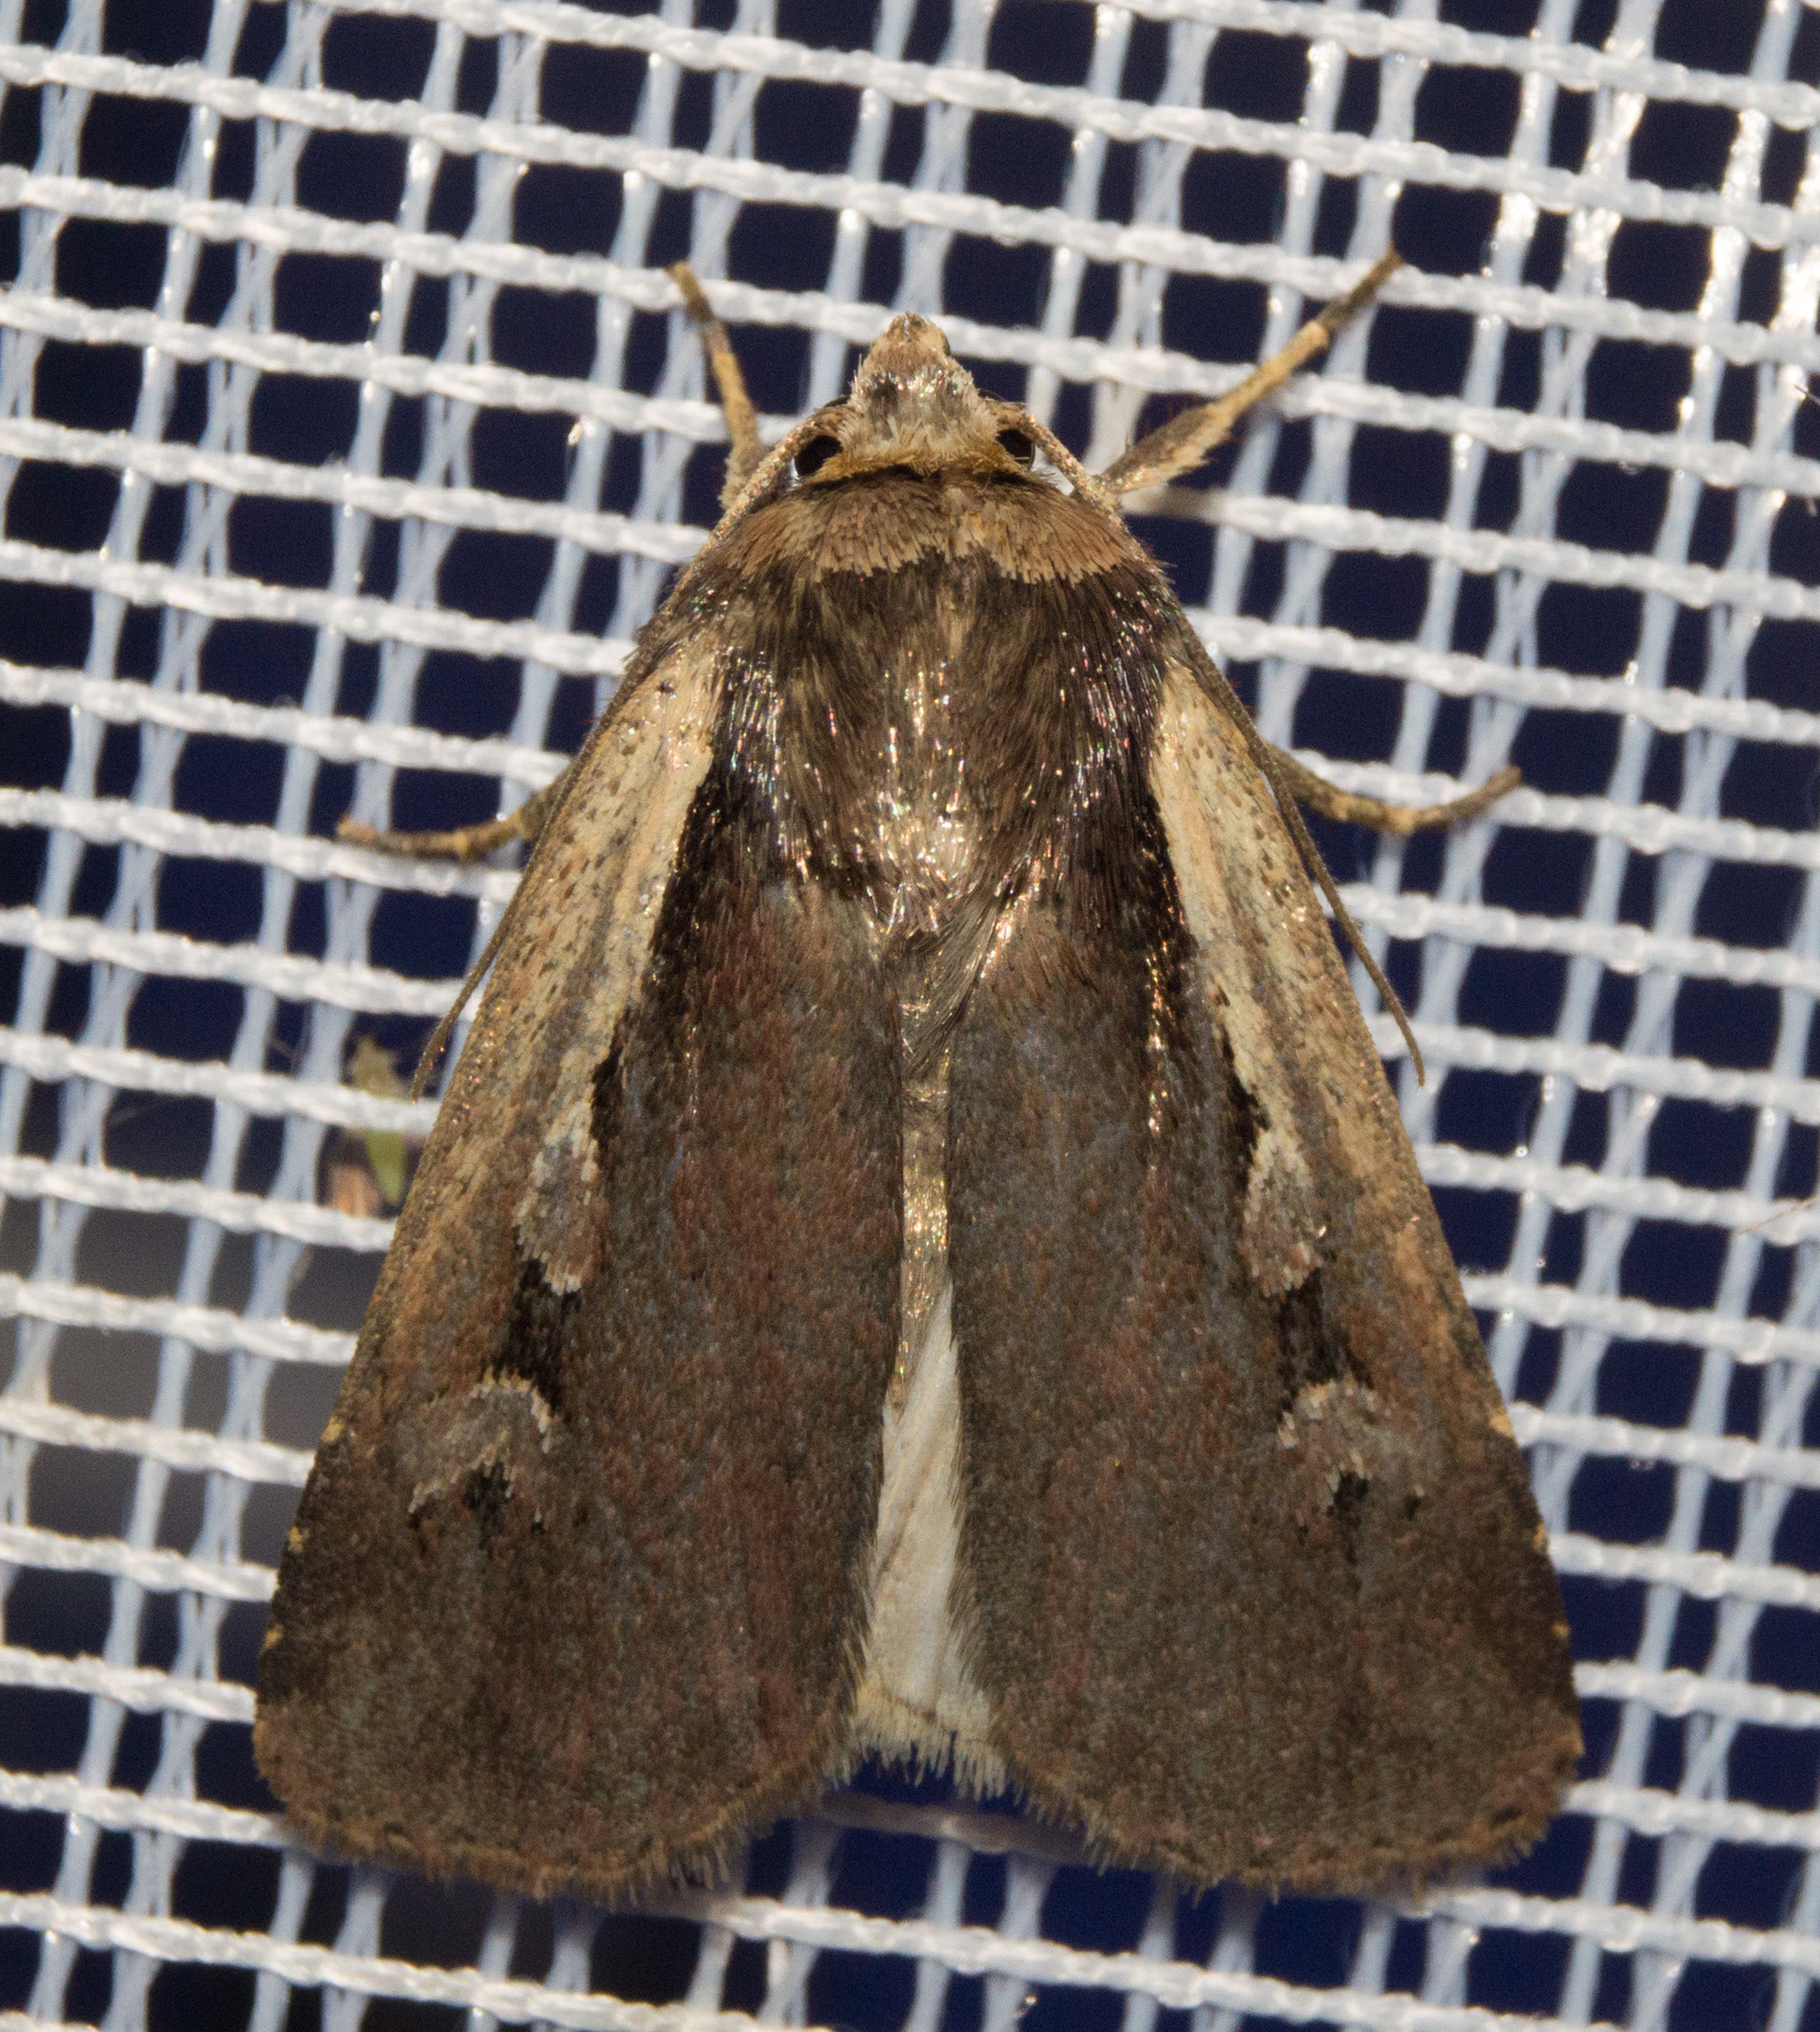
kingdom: Animalia
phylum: Arthropoda
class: Insecta
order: Lepidoptera
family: Noctuidae
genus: Ochropleura
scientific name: Ochropleura plecta
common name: Flame shoulder
